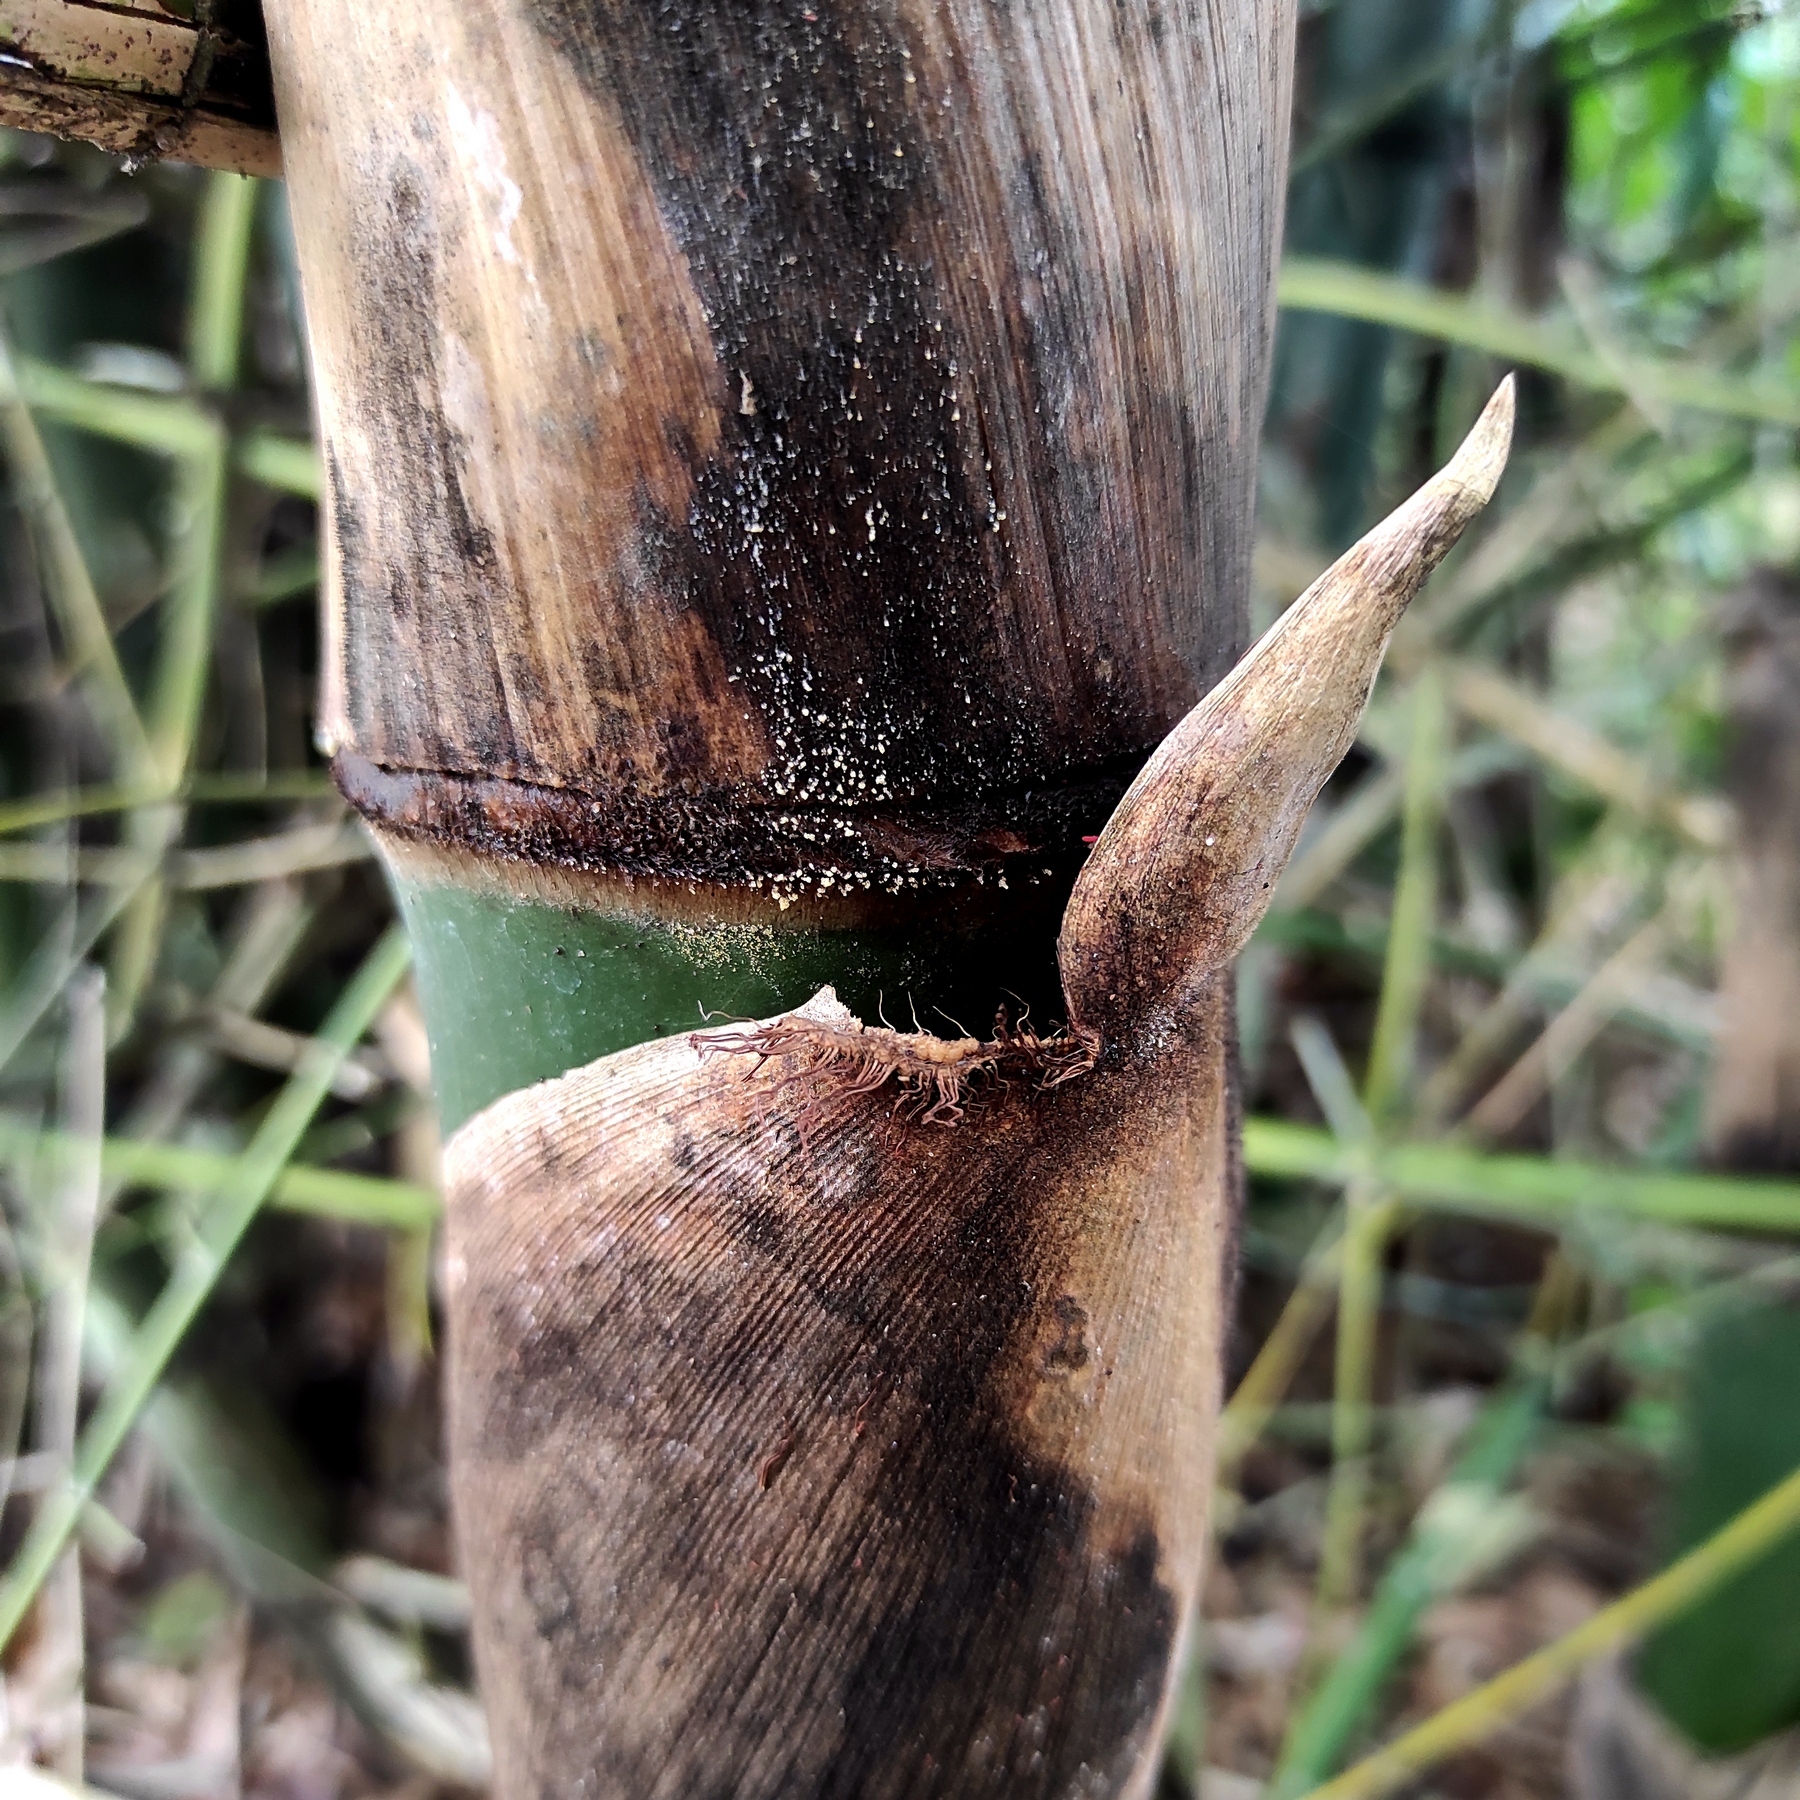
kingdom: Plantae
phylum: Tracheophyta
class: Liliopsida
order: Poales
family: Poaceae
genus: Bambusa
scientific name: Bambusa bambos
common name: Indian thorny bamboo
